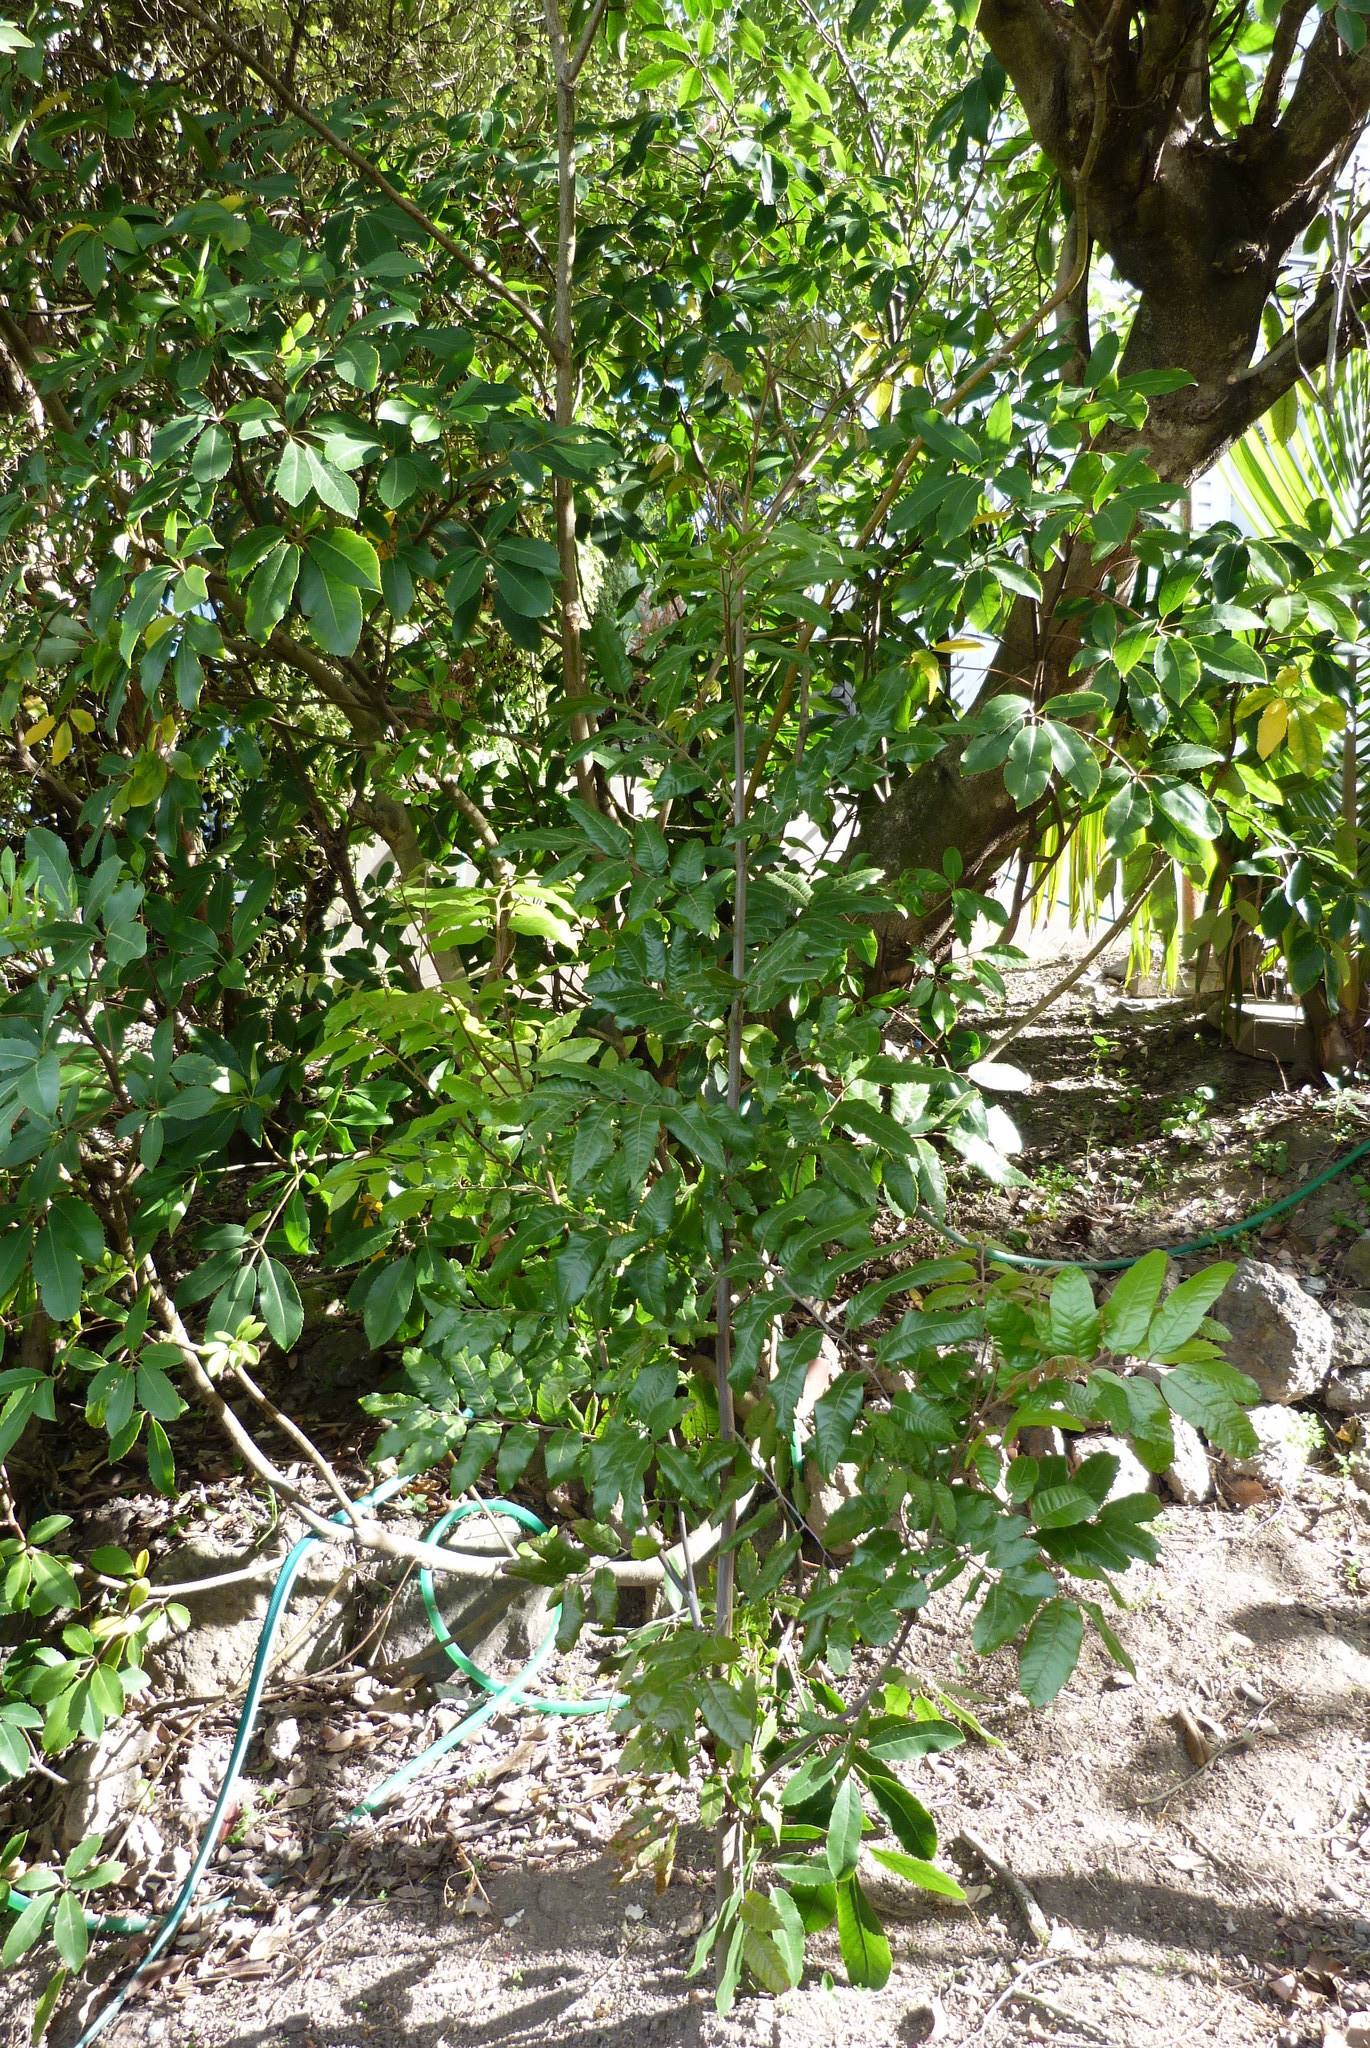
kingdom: Plantae
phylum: Tracheophyta
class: Magnoliopsida
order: Sapindales
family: Sapindaceae
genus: Alectryon
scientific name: Alectryon excelsus
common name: Three kings titoki
